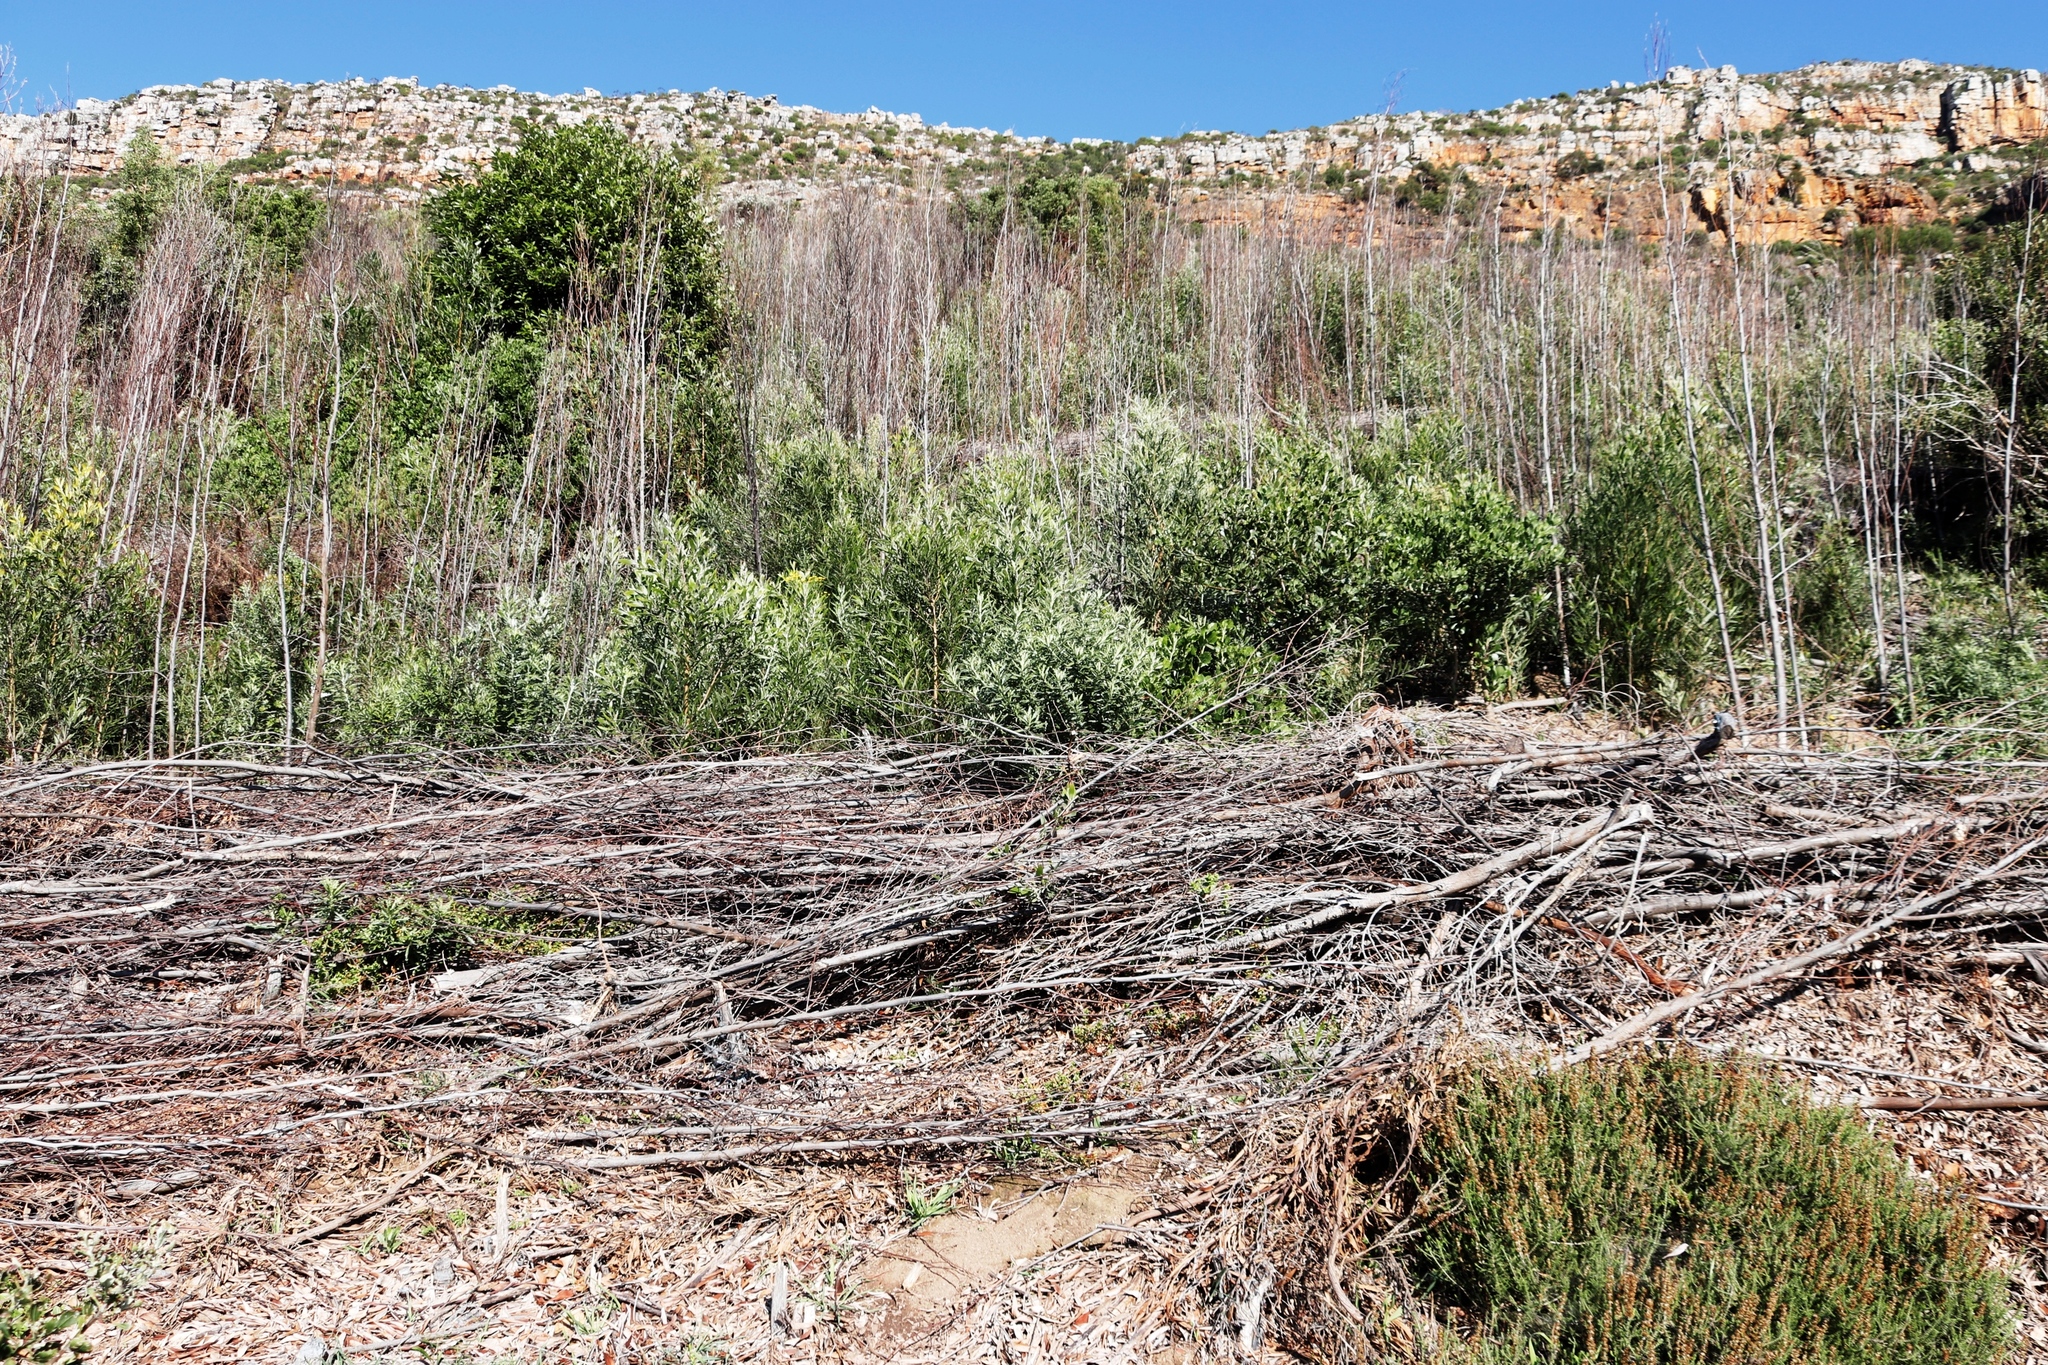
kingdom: Plantae
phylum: Tracheophyta
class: Magnoliopsida
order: Fabales
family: Fabaceae
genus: Acacia
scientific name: Acacia melanoxylon
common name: Blackwood
